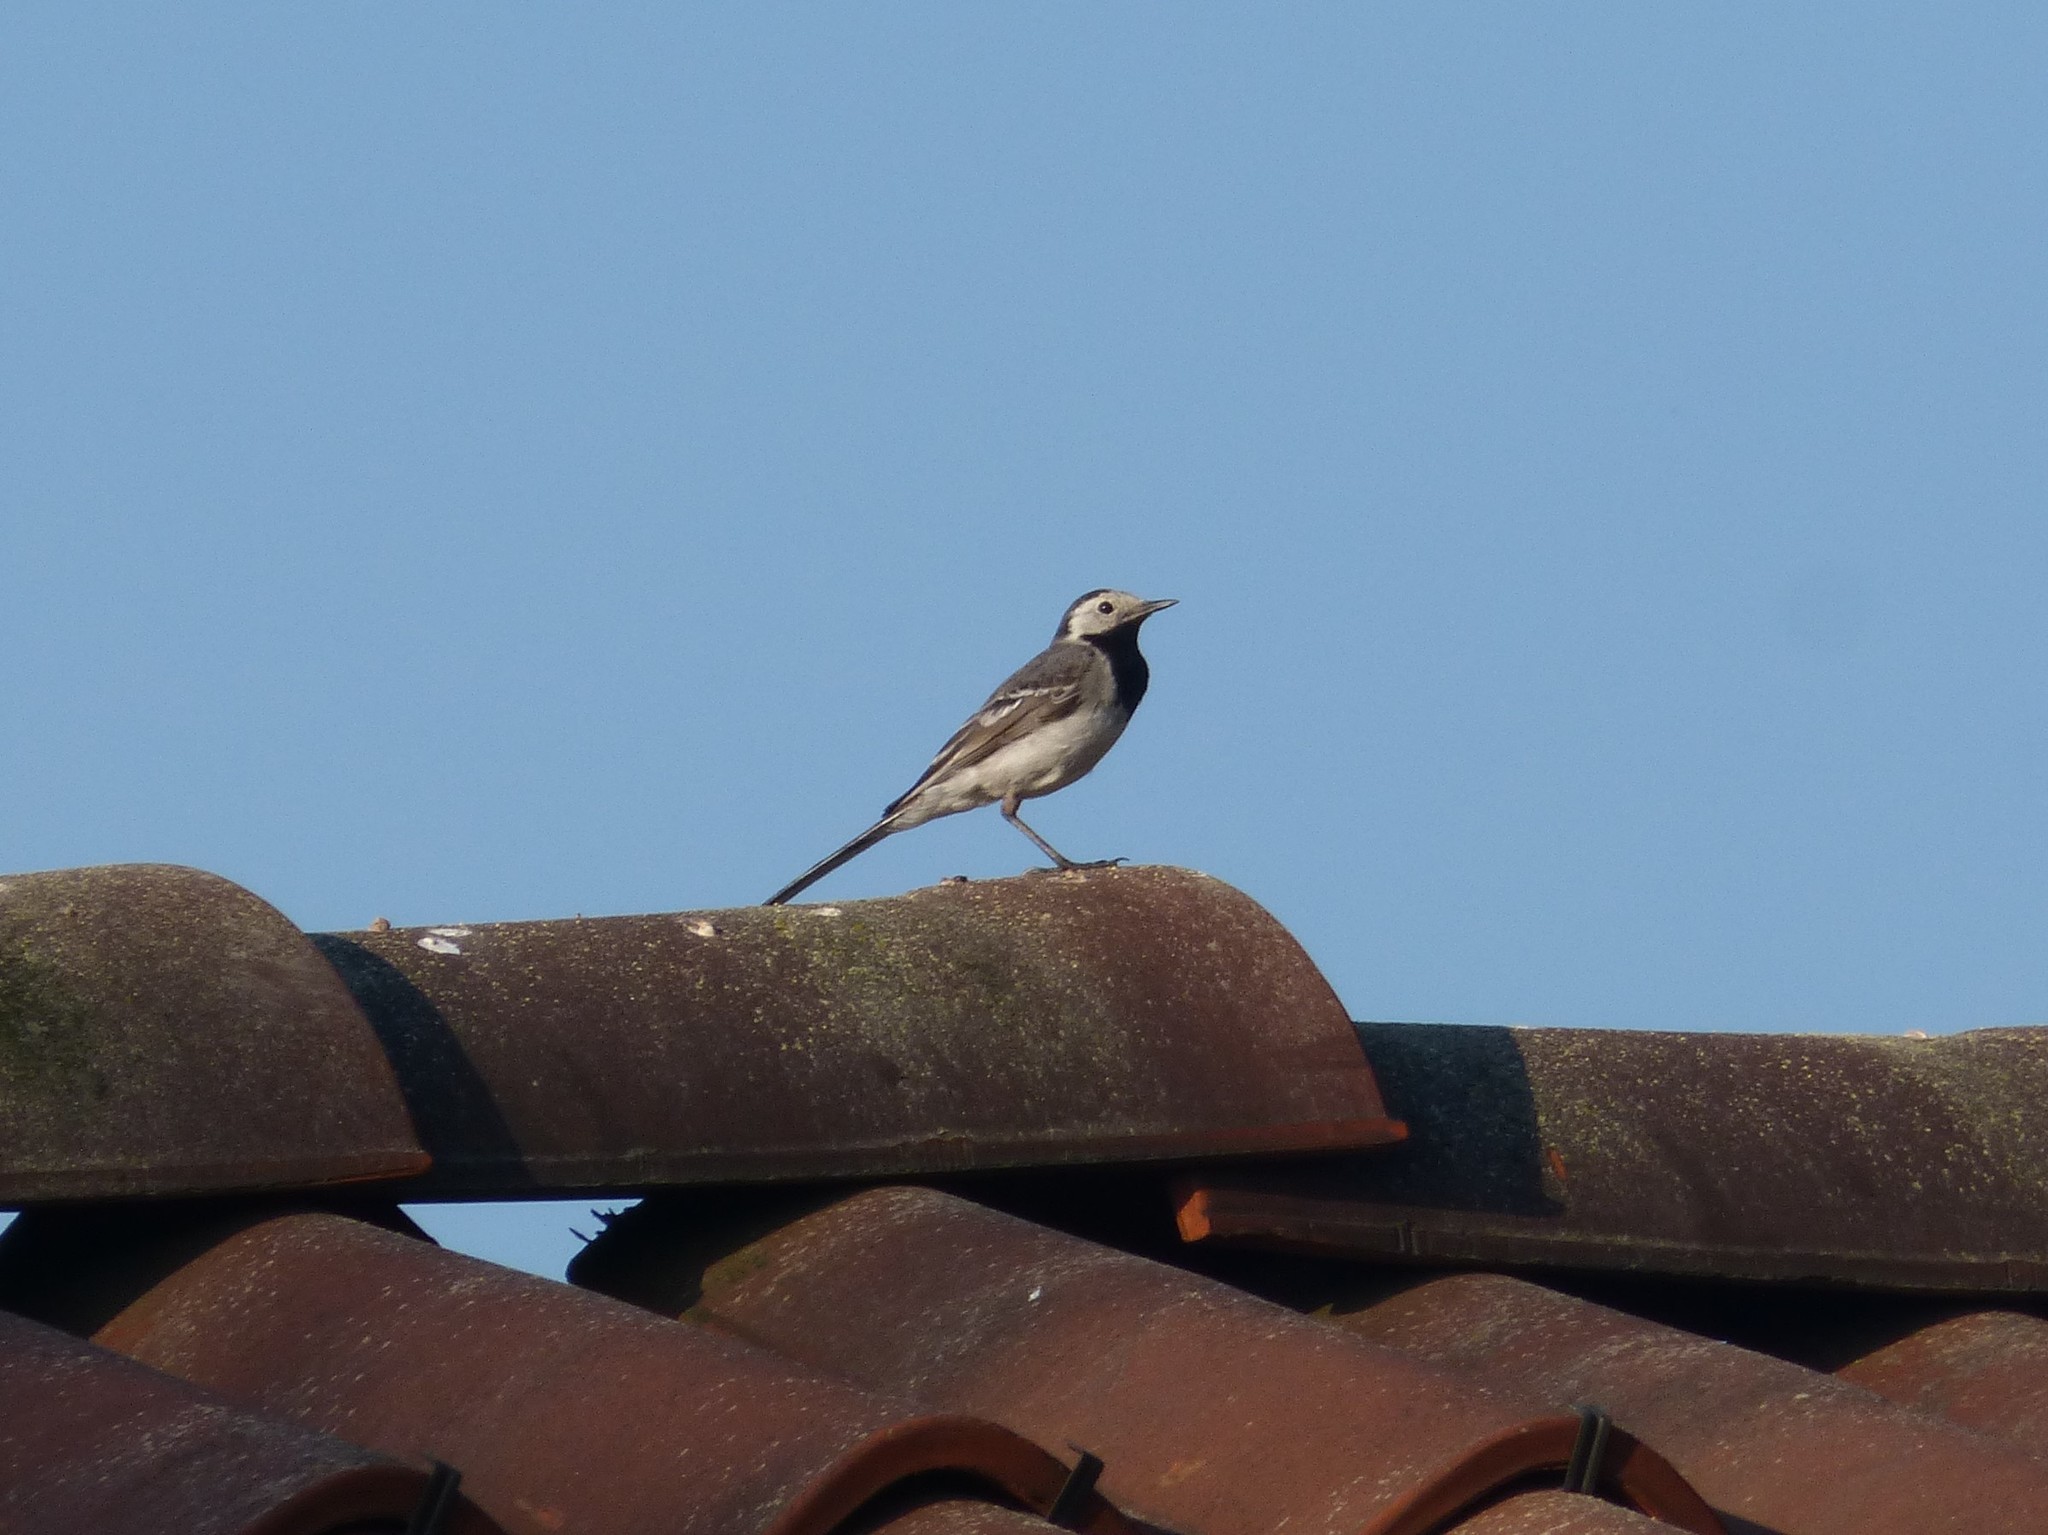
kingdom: Animalia
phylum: Chordata
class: Aves
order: Passeriformes
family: Motacillidae
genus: Motacilla
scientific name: Motacilla alba
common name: White wagtail
